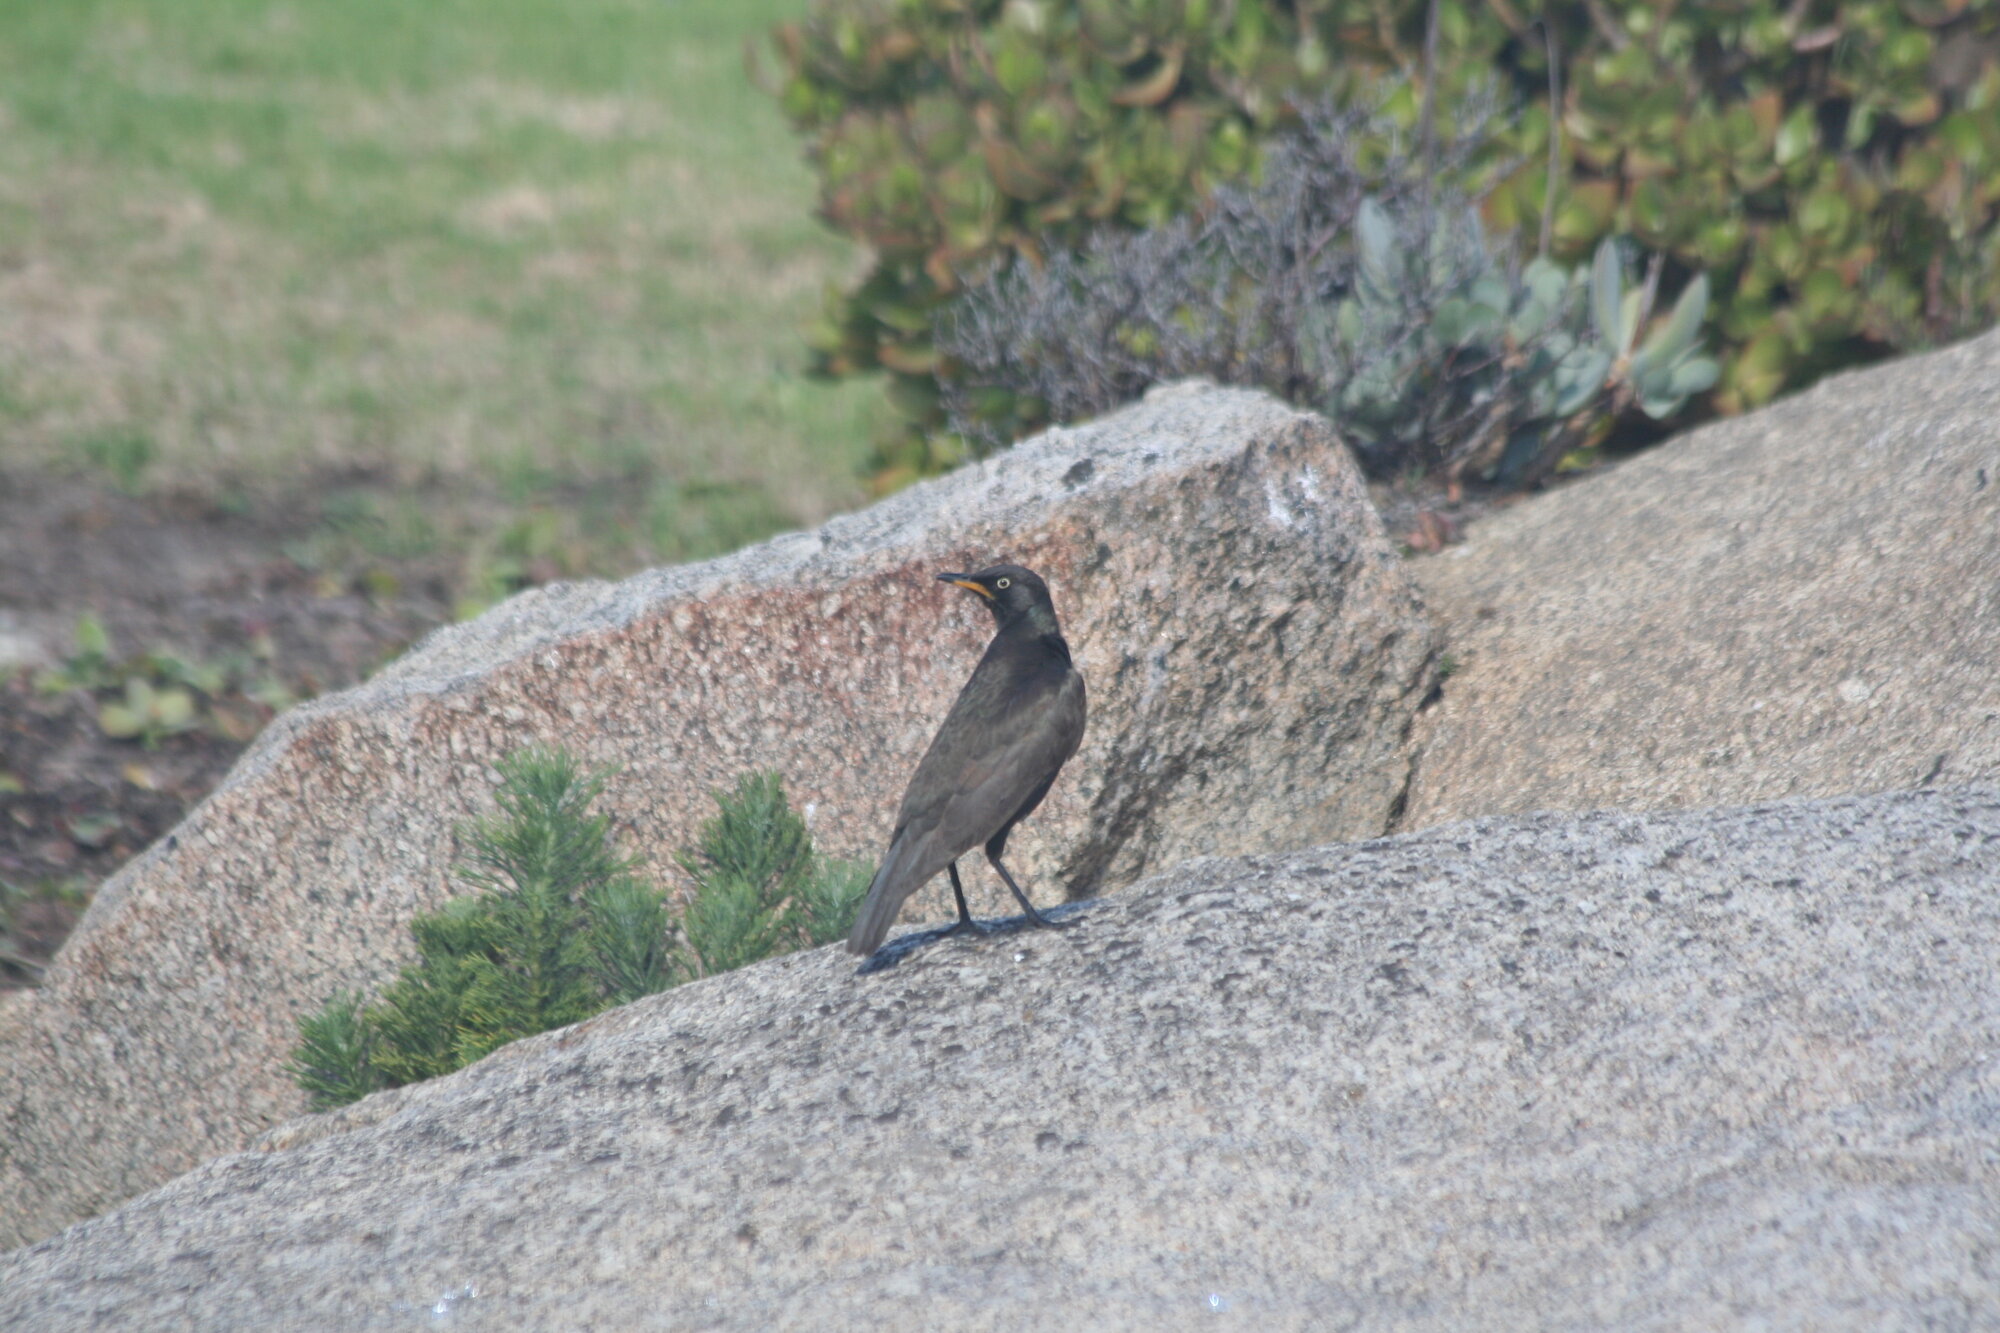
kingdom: Animalia
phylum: Chordata
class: Aves
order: Passeriformes
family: Sturnidae
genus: Lamprotornis
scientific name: Lamprotornis bicolor
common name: Pied starling
